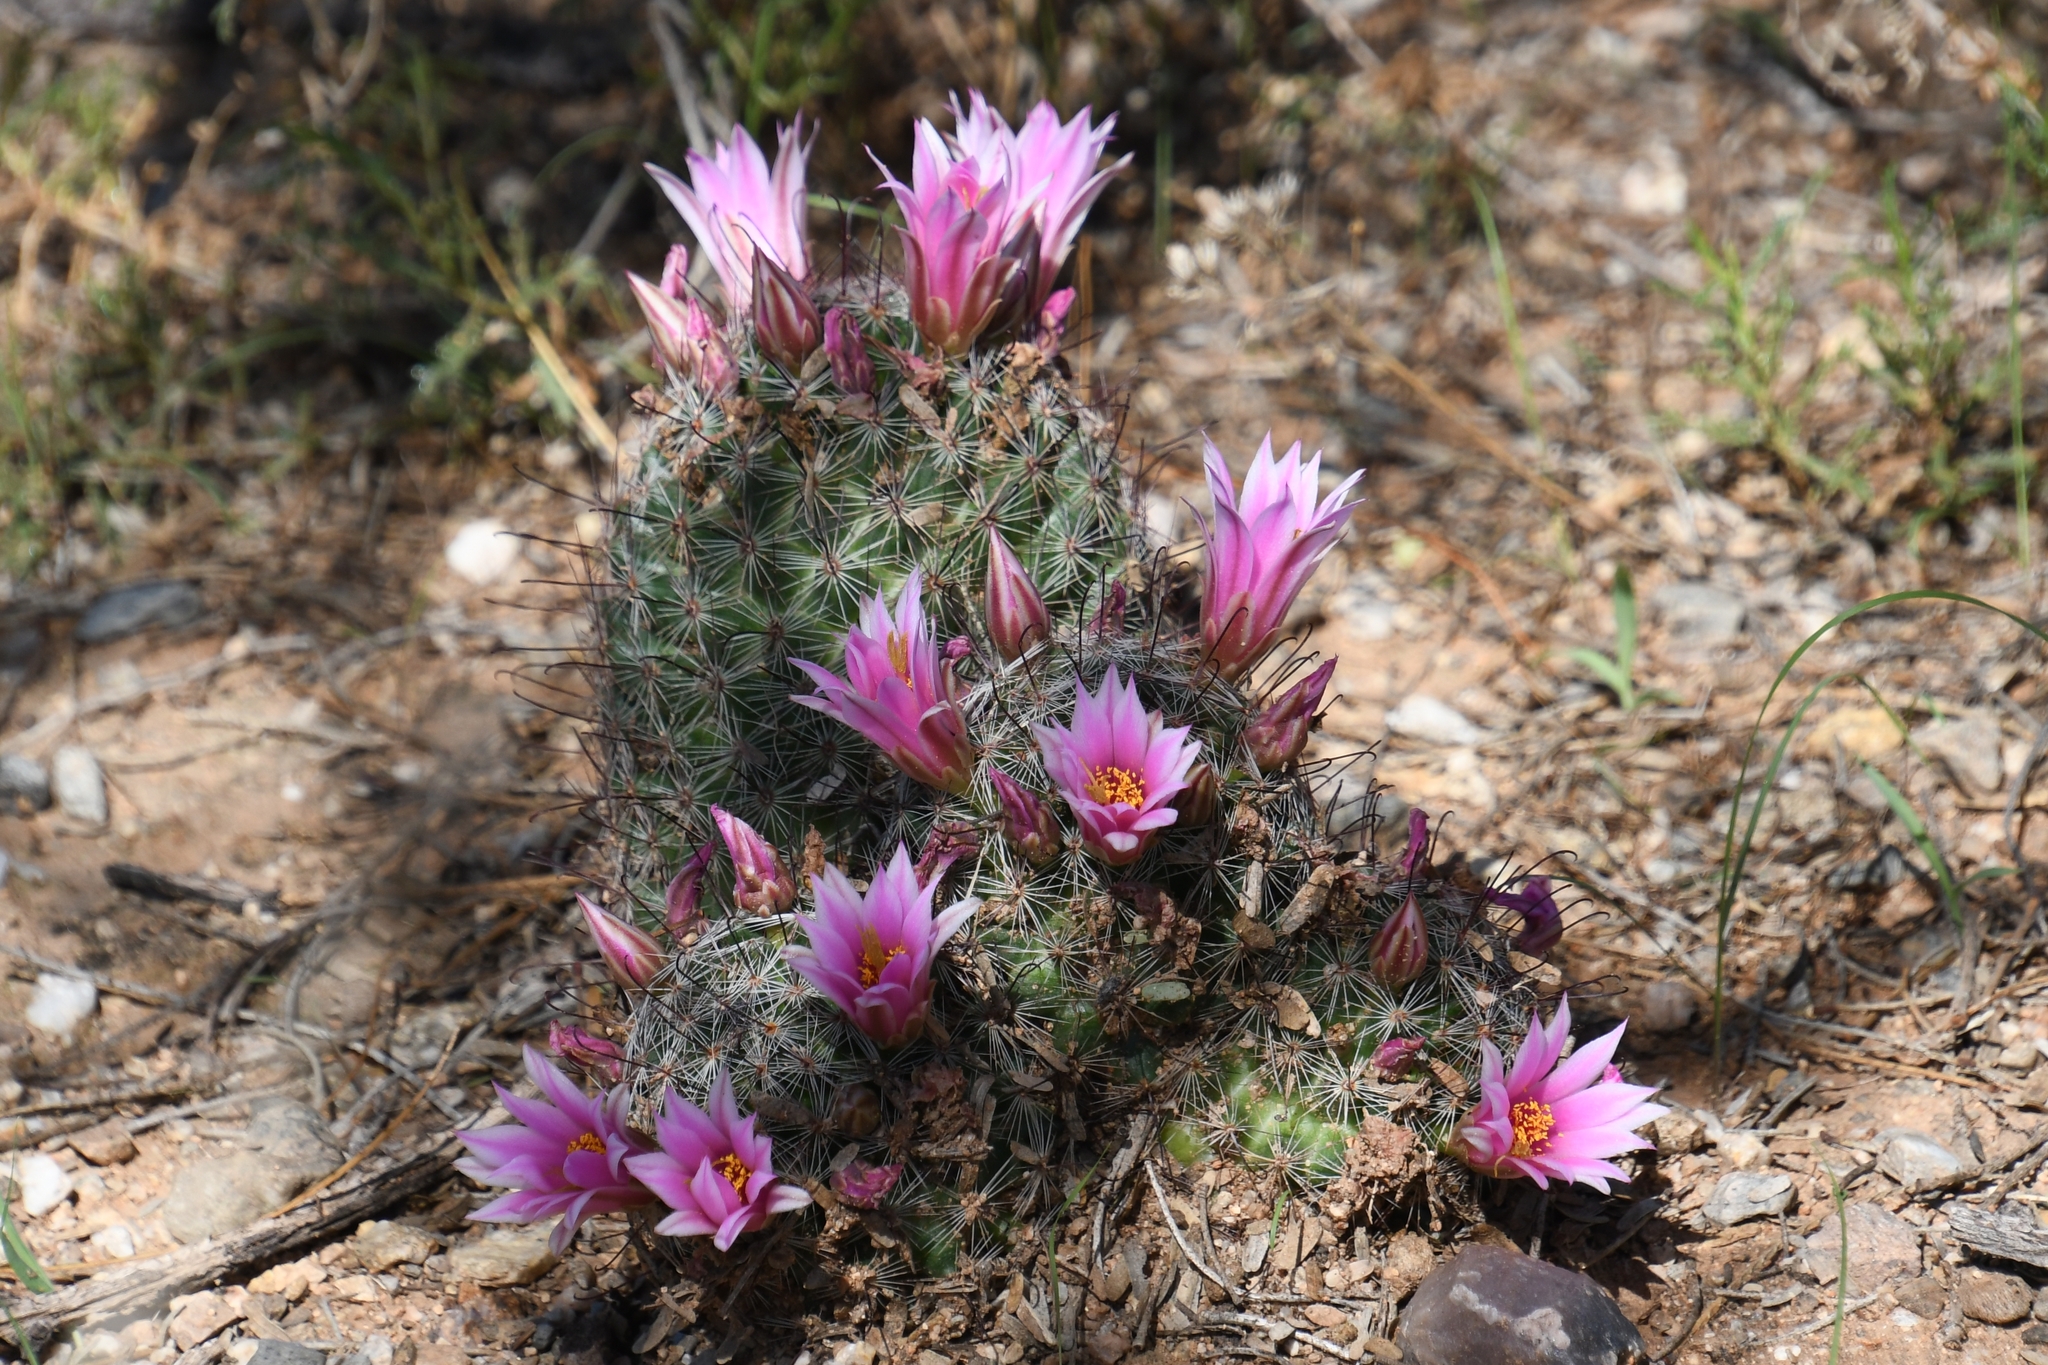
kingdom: Plantae
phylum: Tracheophyta
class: Magnoliopsida
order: Caryophyllales
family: Cactaceae
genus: Cochemiea
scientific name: Cochemiea grahamii
